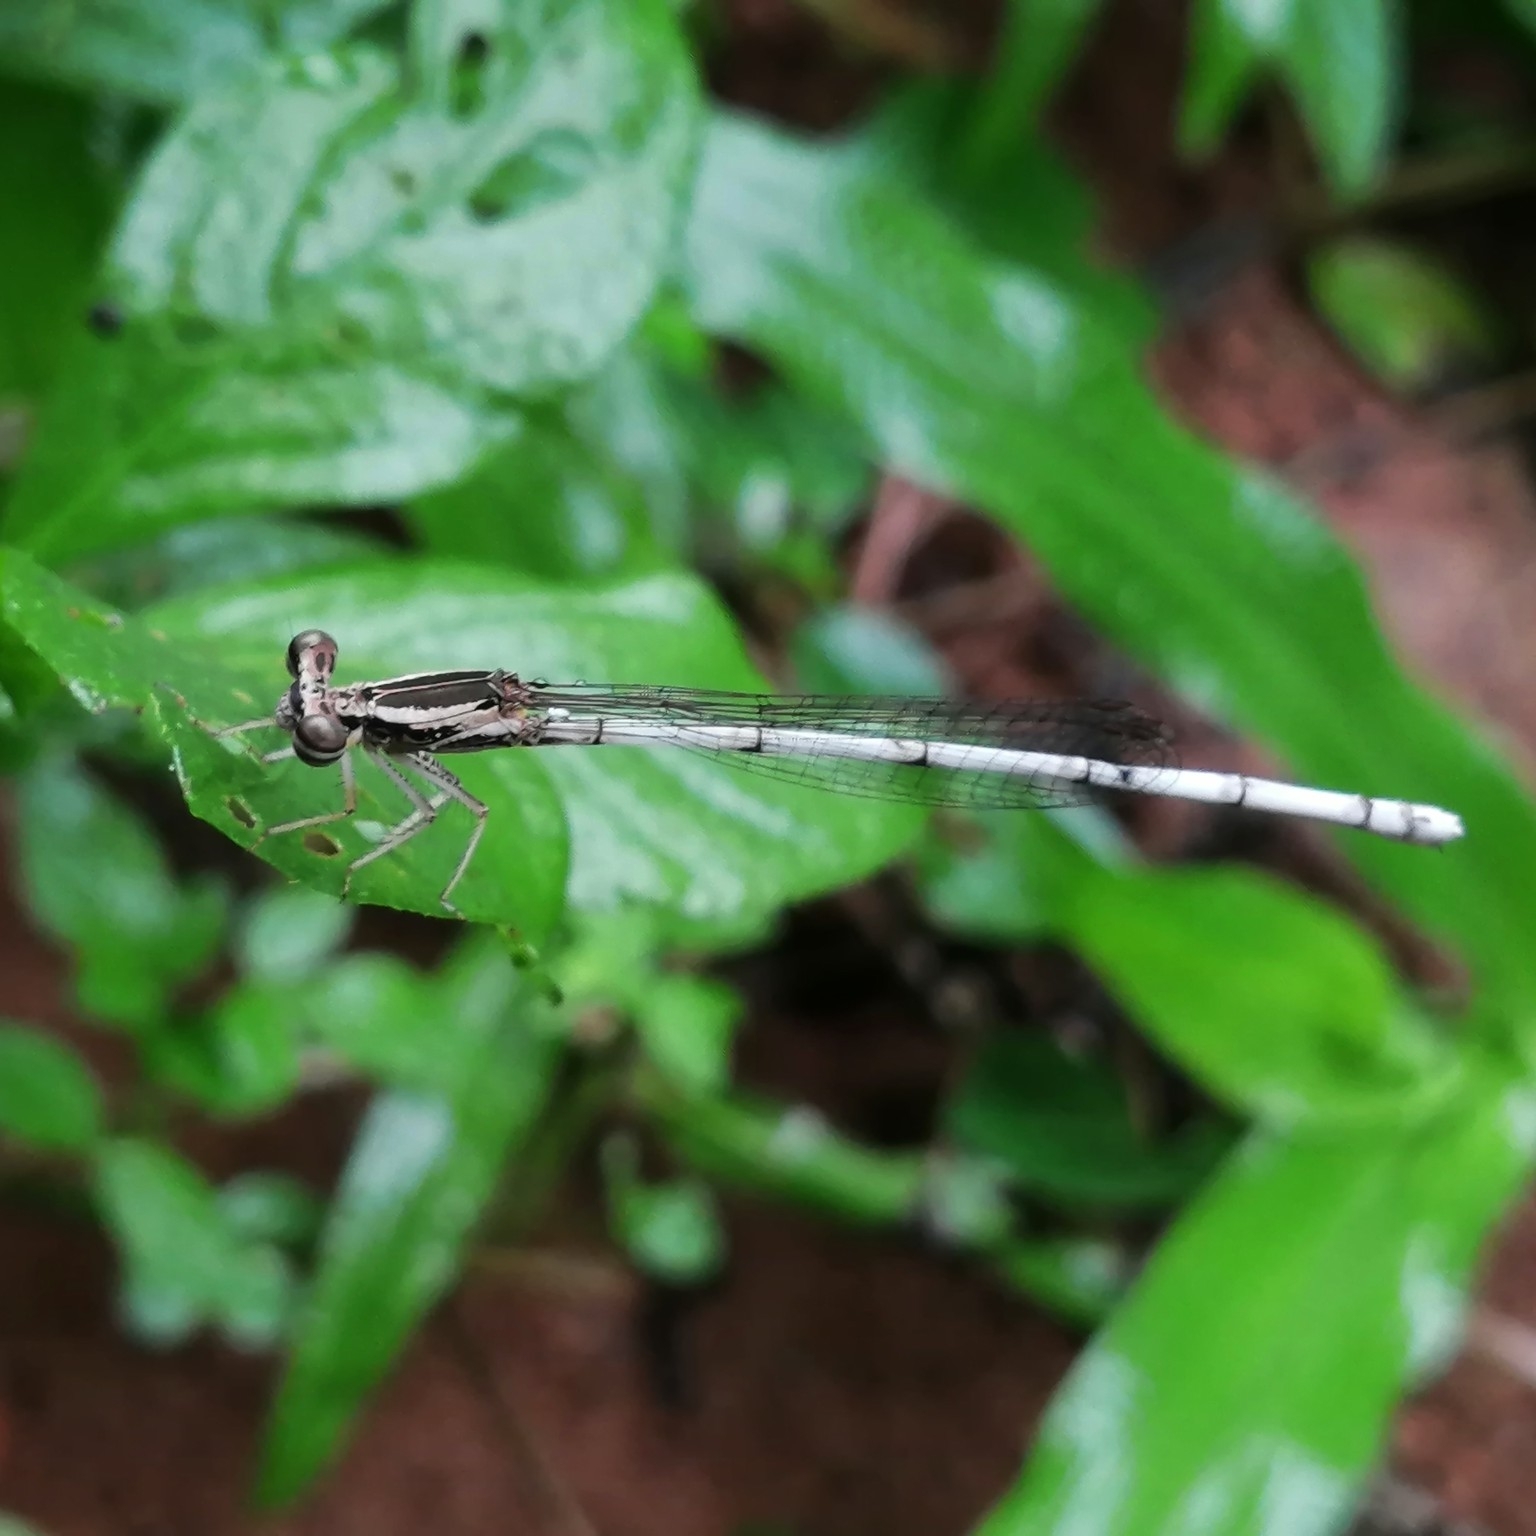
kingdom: Animalia
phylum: Arthropoda
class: Insecta
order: Odonata
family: Platycnemididae
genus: Copera
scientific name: Copera marginipes
